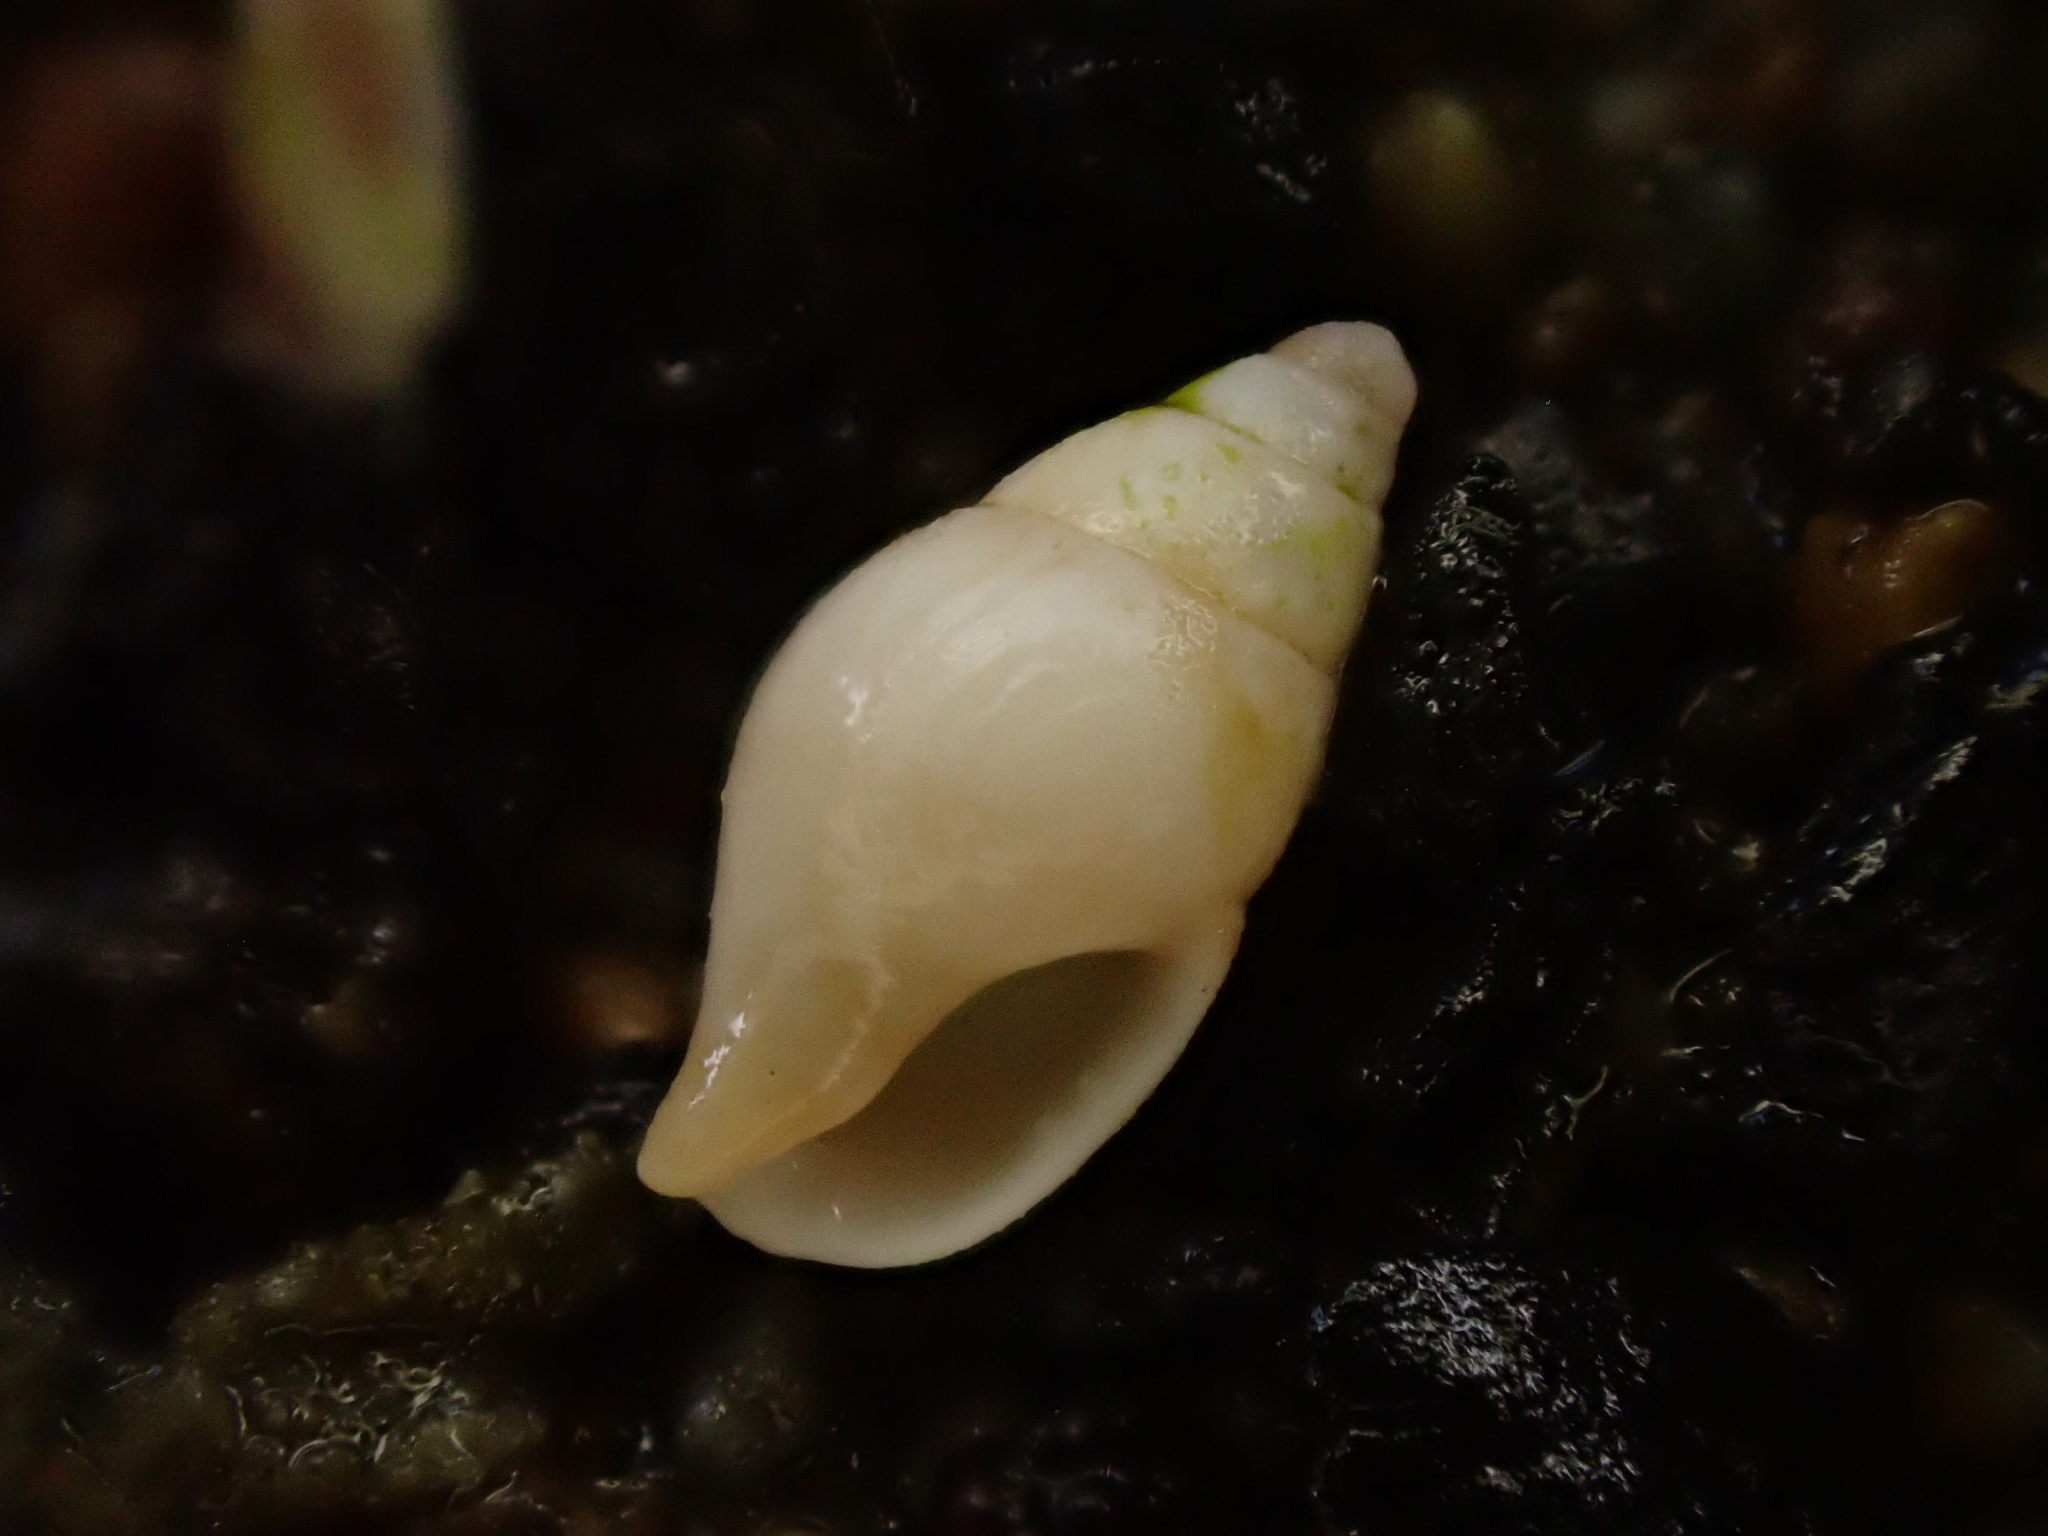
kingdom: Animalia
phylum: Mollusca
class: Gastropoda
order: Neogastropoda
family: Columbellidae
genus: Zemitrella
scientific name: Zemitrella
